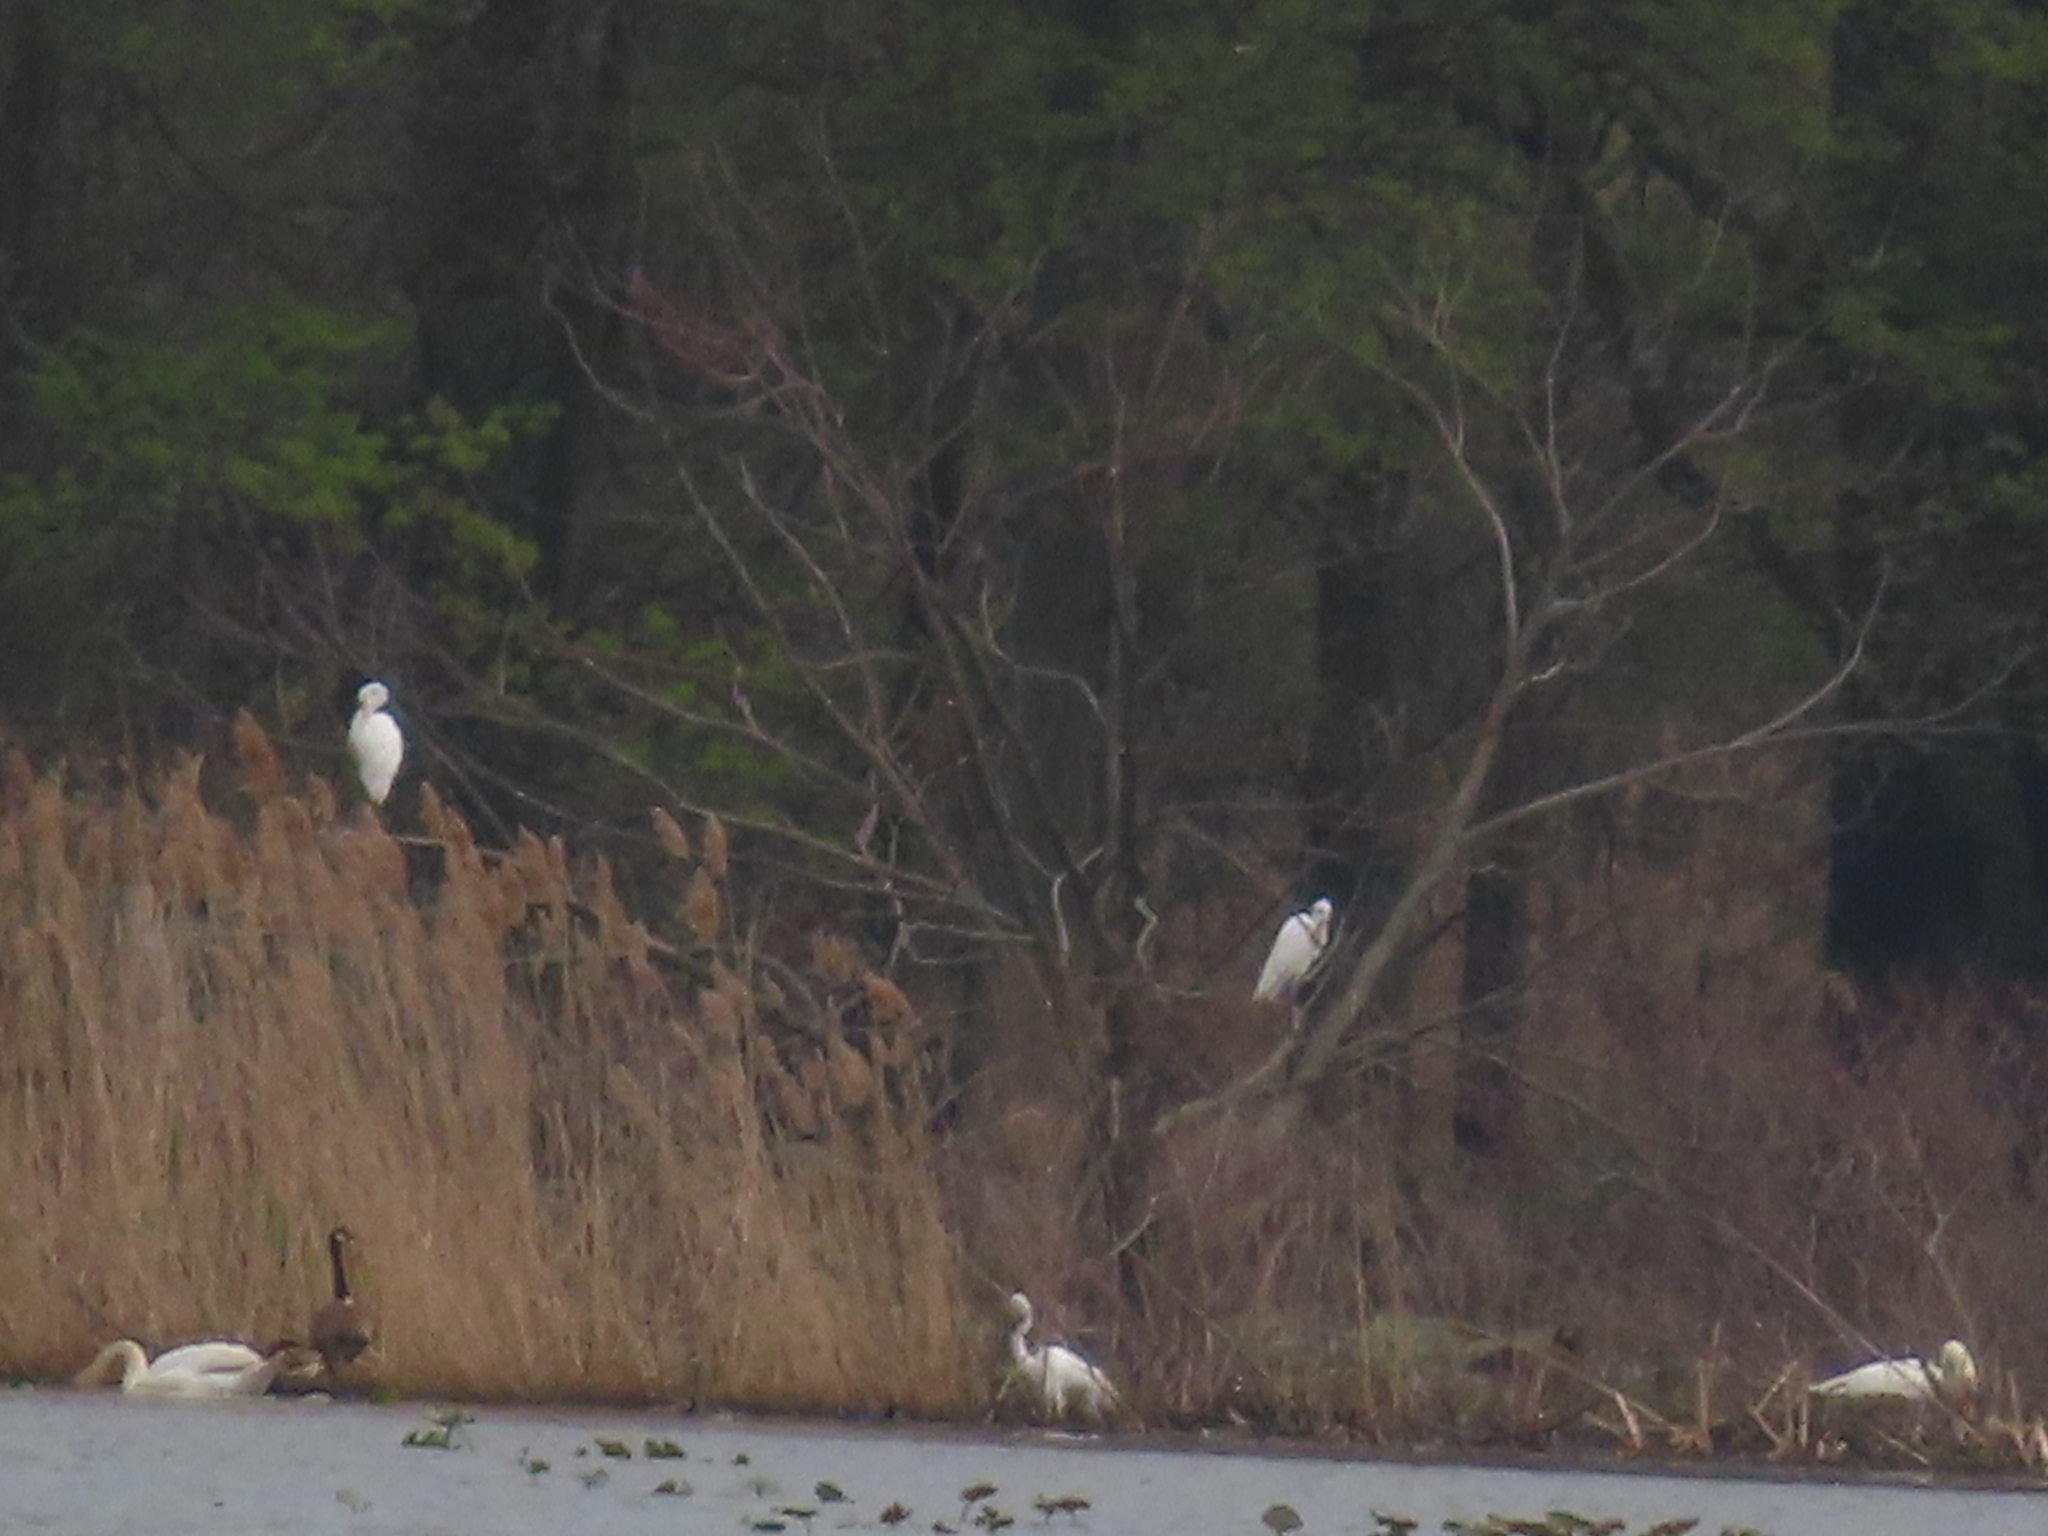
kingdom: Animalia
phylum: Chordata
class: Aves
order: Pelecaniformes
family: Ardeidae
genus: Ardea
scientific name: Ardea alba
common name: Great egret
